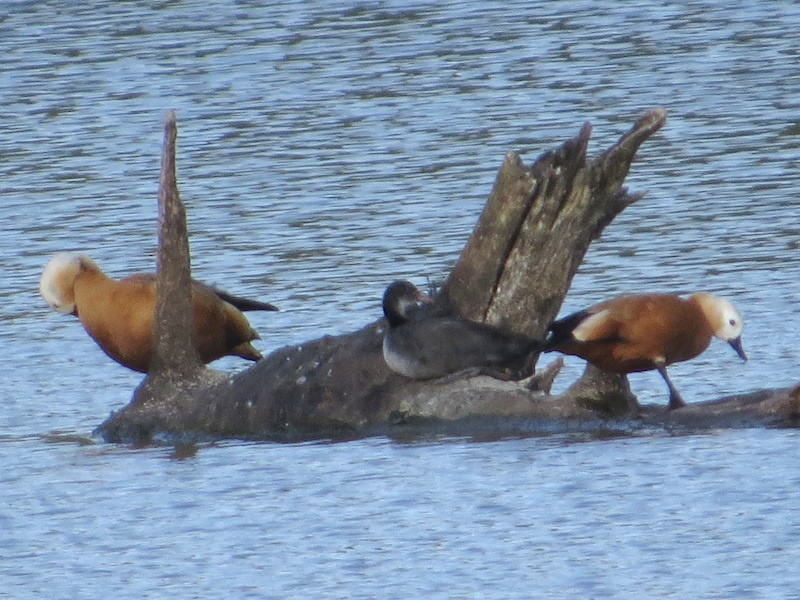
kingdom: Animalia
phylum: Chordata
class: Aves
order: Anseriformes
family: Anatidae
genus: Tadorna
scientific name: Tadorna ferruginea
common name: Ruddy shelduck
